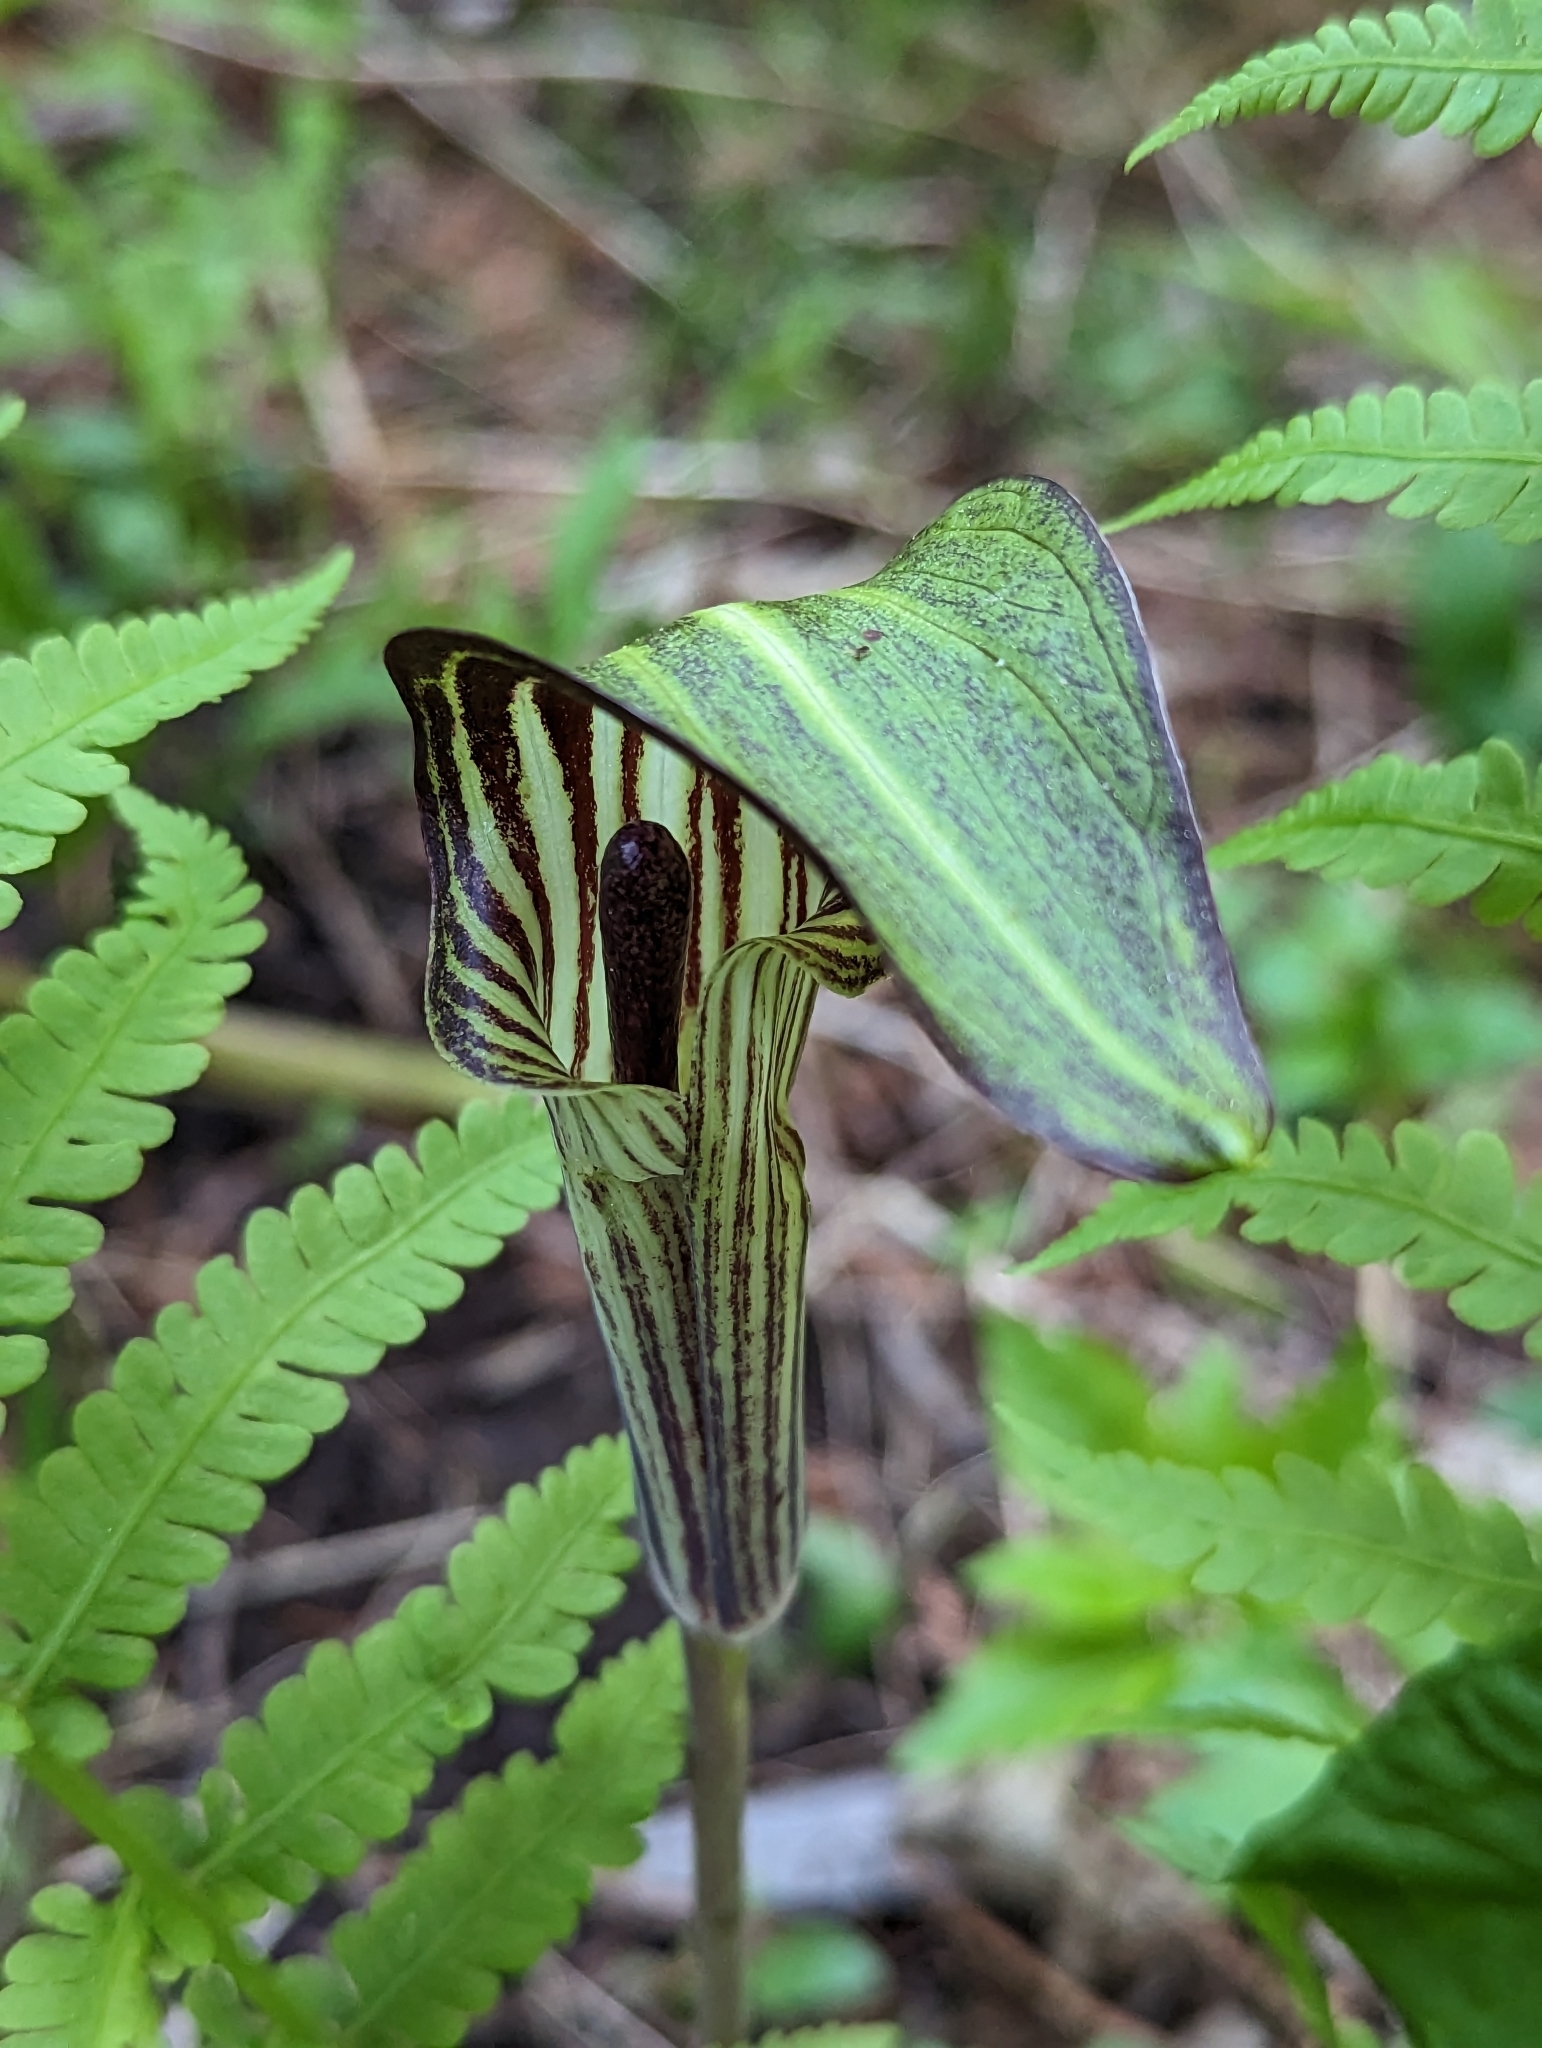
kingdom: Plantae
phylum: Tracheophyta
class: Liliopsida
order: Alismatales
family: Araceae
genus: Arisaema
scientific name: Arisaema triphyllum
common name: Jack-in-the-pulpit
